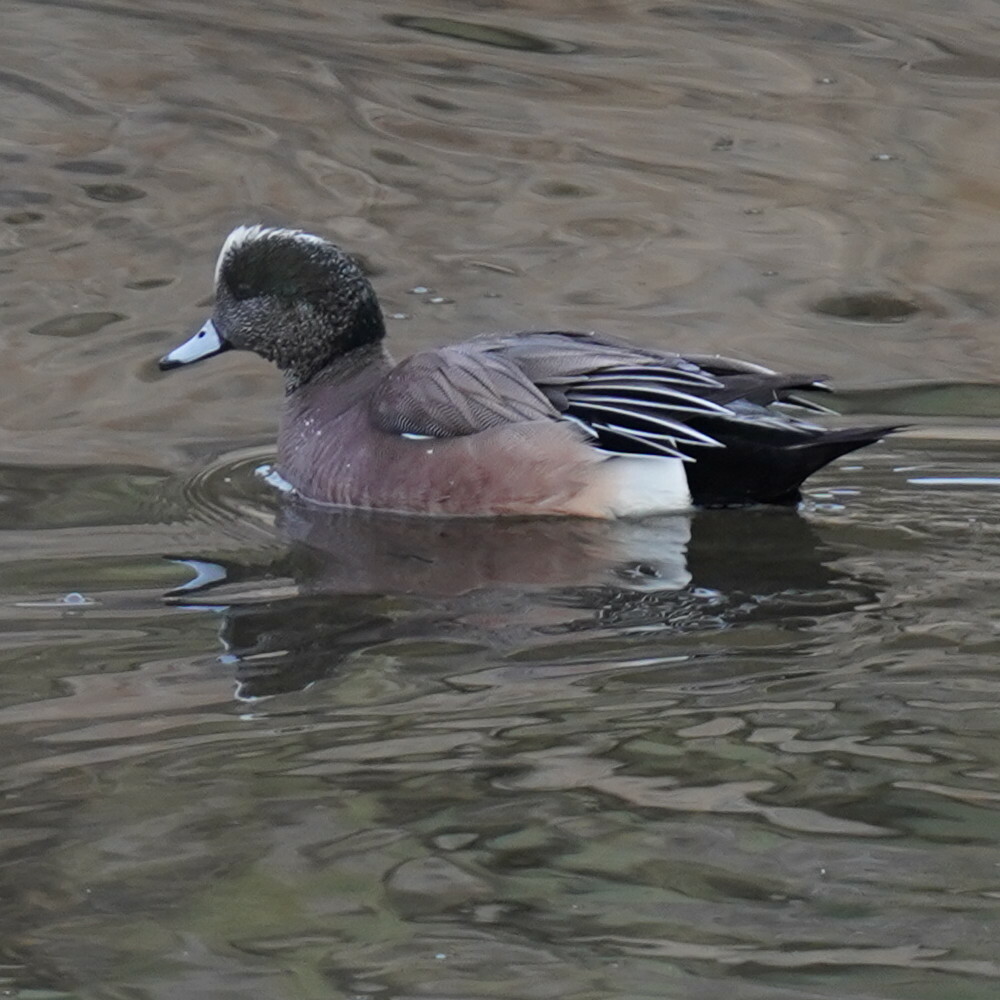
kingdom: Animalia
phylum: Chordata
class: Aves
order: Anseriformes
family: Anatidae
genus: Mareca
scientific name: Mareca americana
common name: American wigeon
